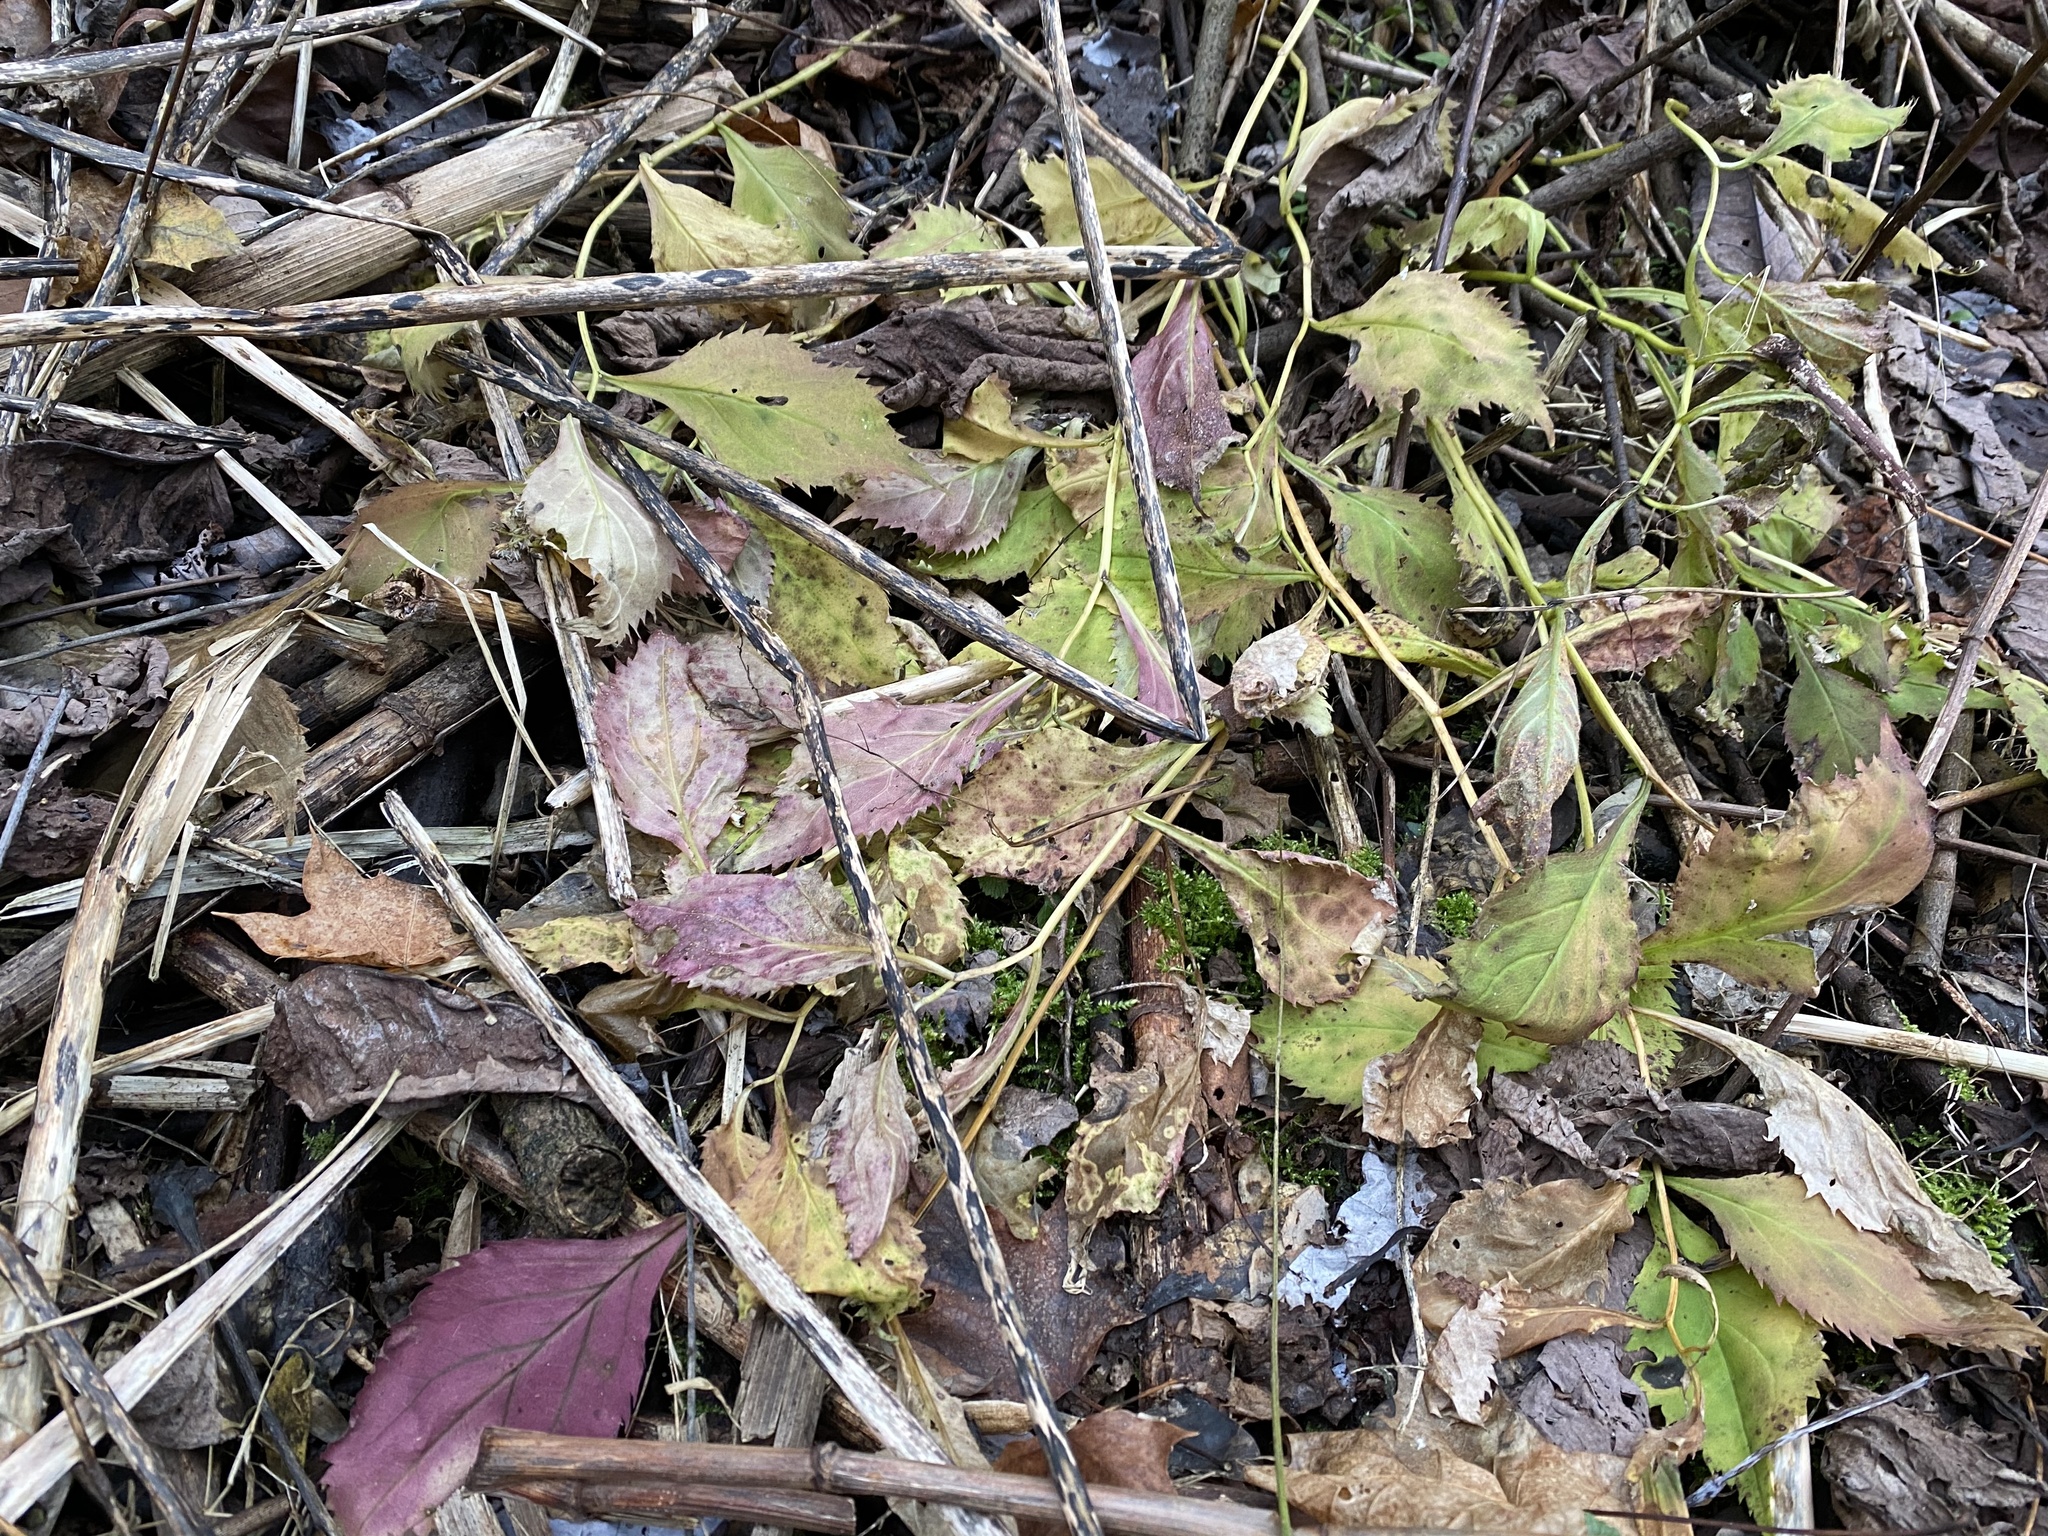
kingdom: Plantae
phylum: Tracheophyta
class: Magnoliopsida
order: Asterales
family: Asteraceae
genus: Solidago
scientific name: Solidago flexicaulis
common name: Zig-zag goldenrod
